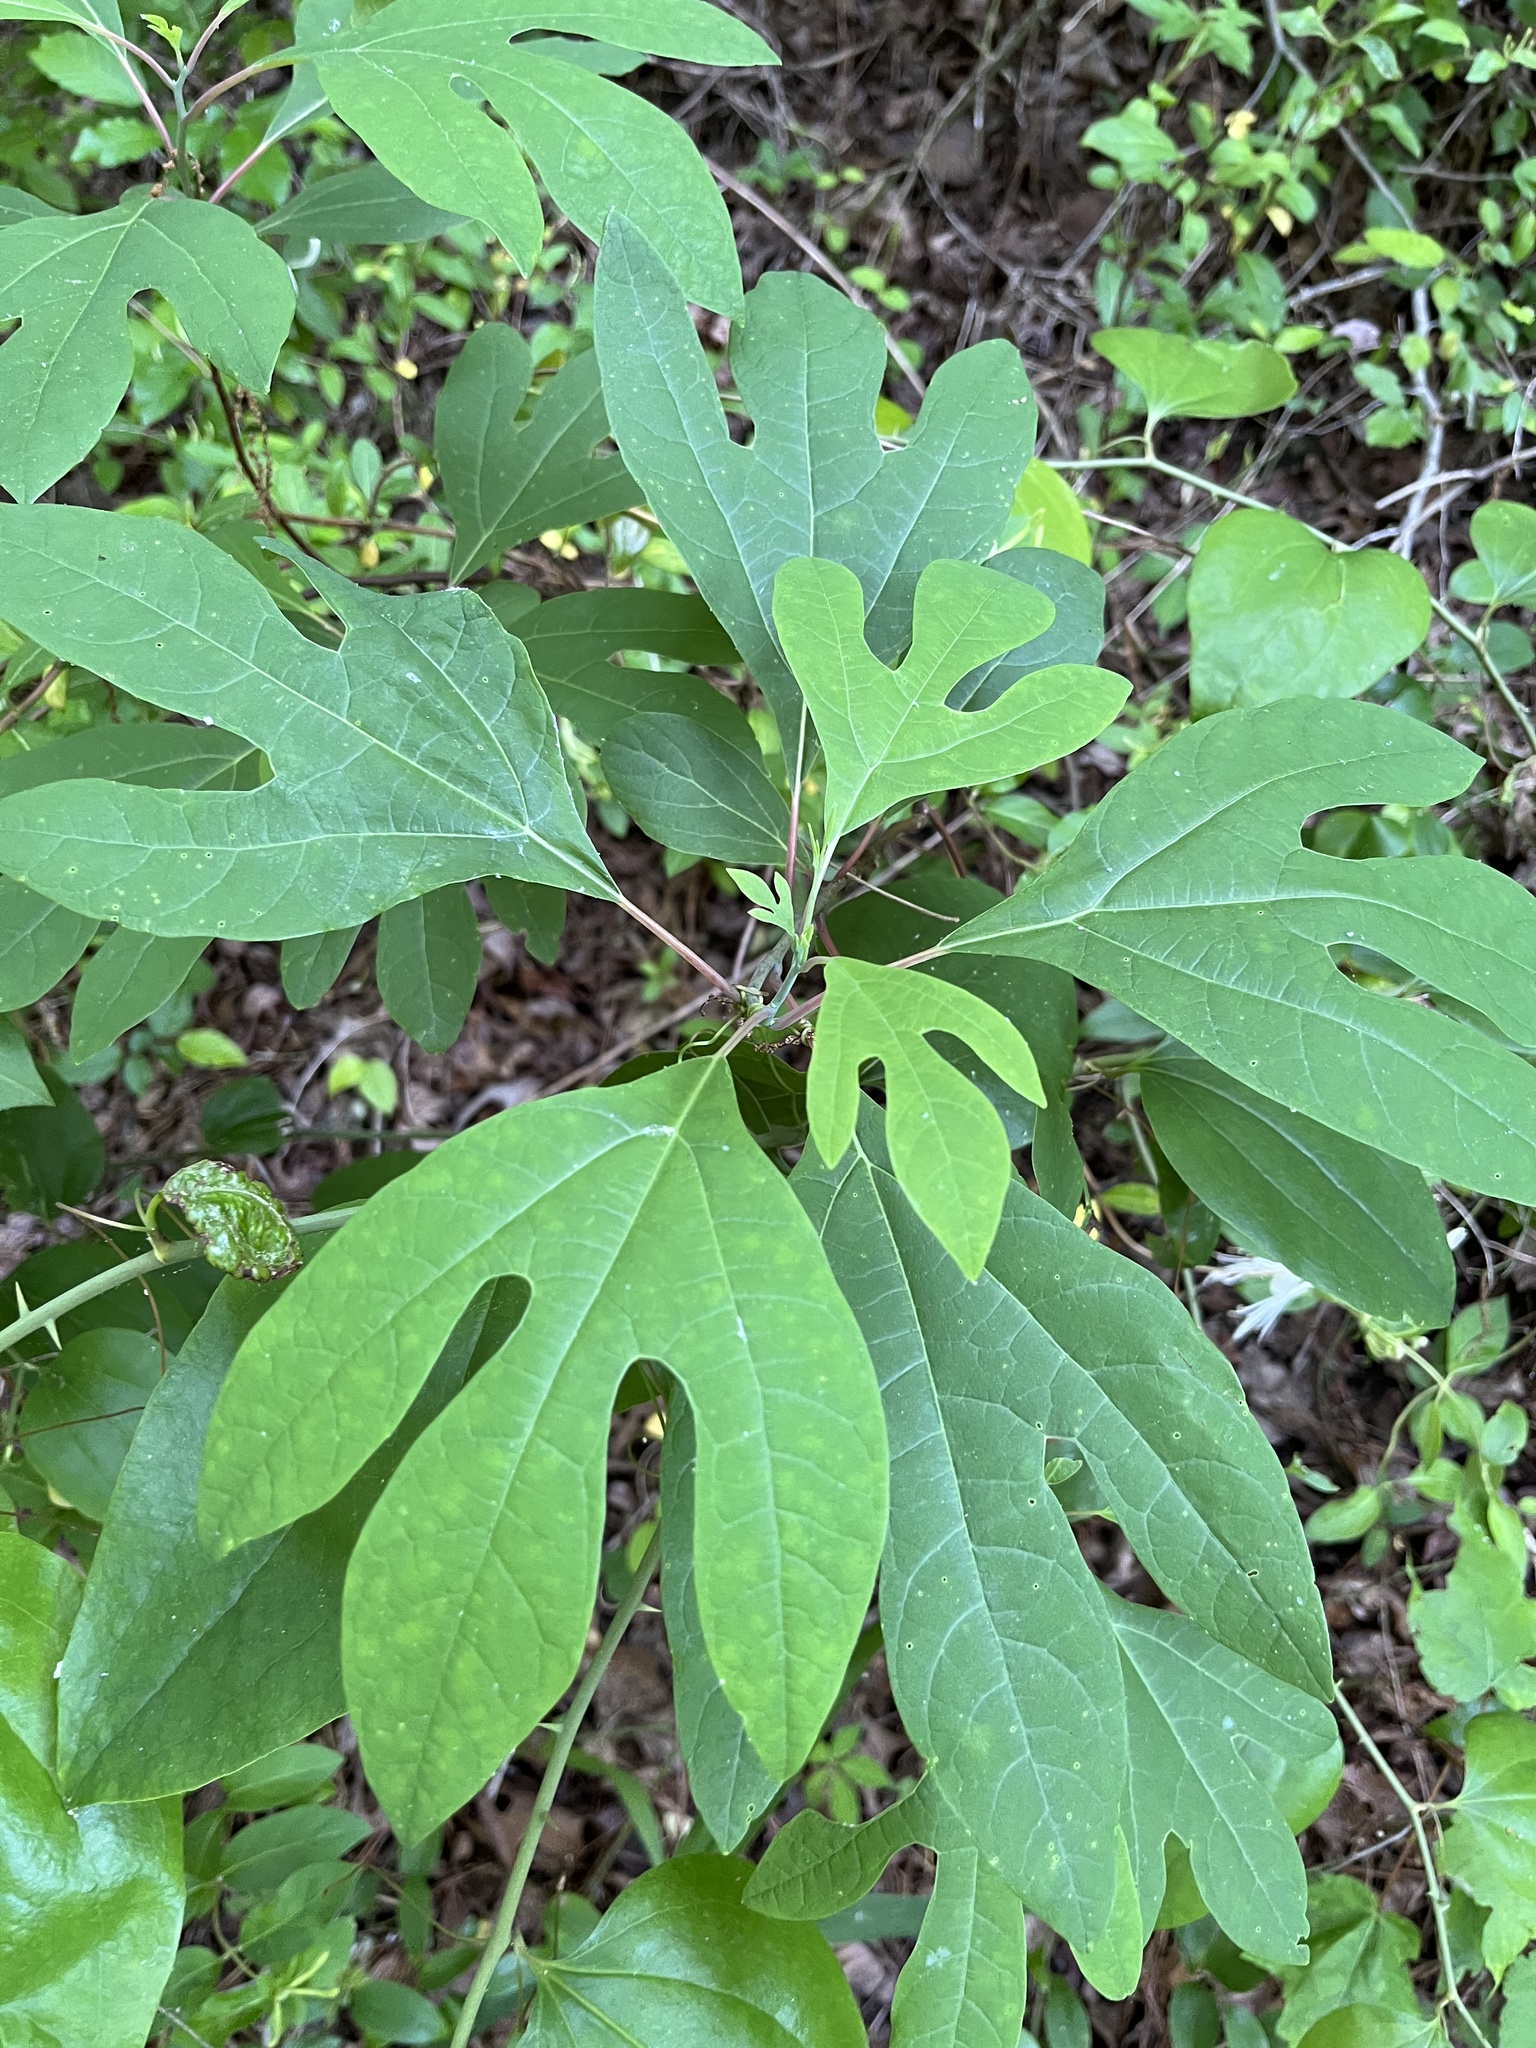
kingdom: Plantae
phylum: Tracheophyta
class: Magnoliopsida
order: Laurales
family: Lauraceae
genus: Sassafras
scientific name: Sassafras albidum
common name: Sassafras
